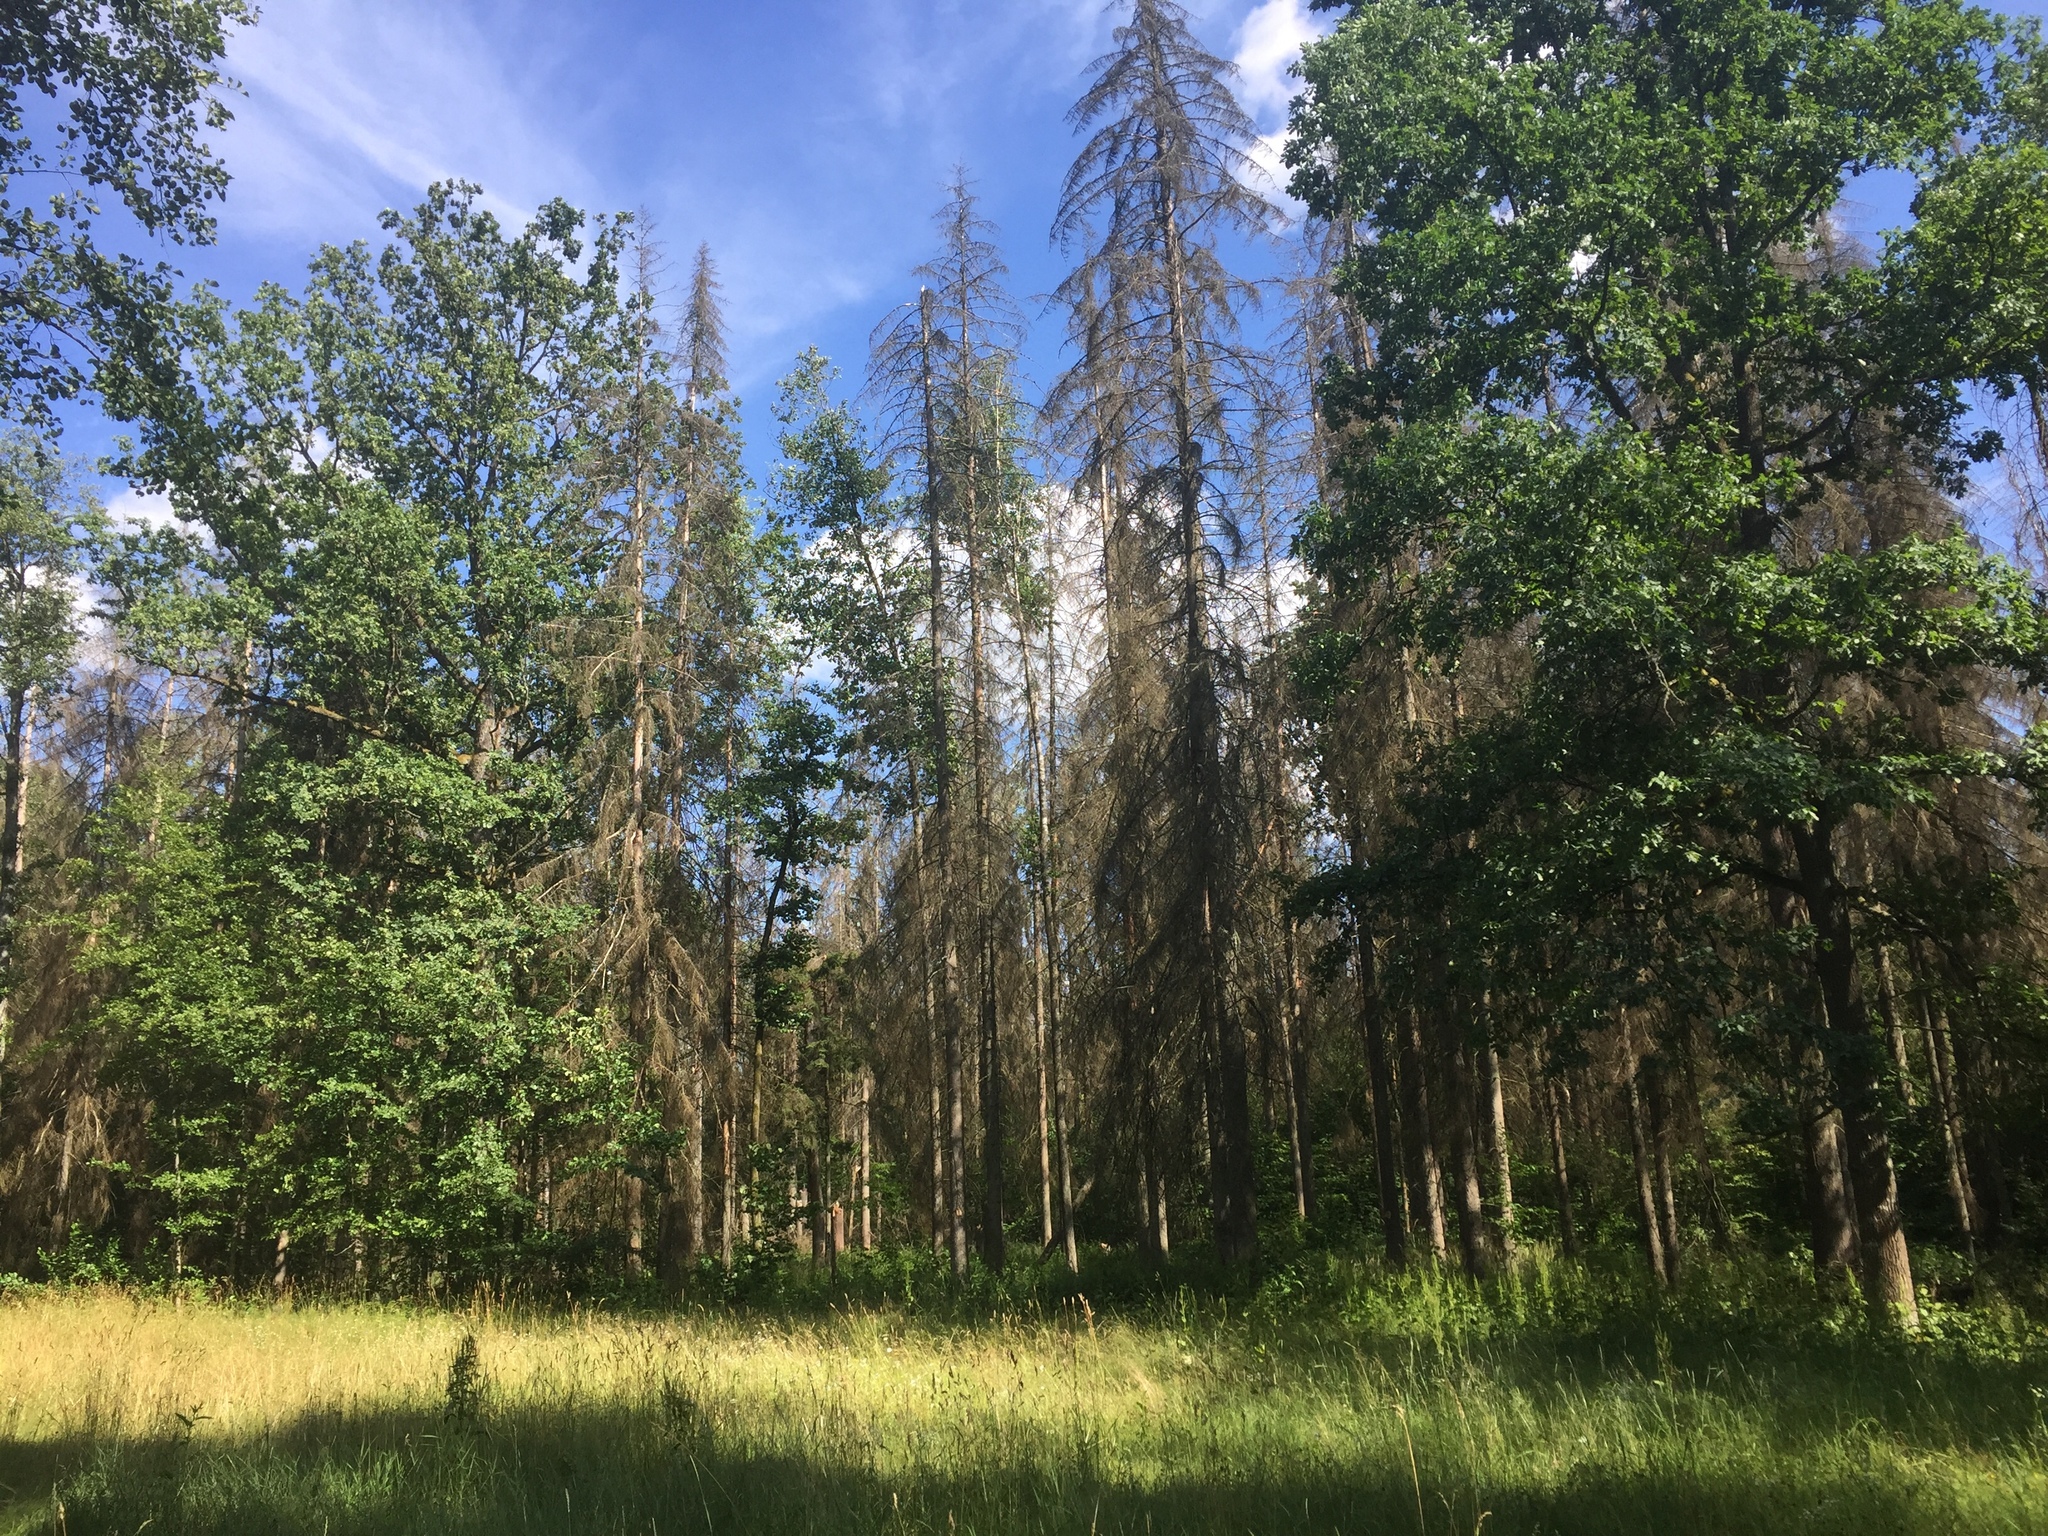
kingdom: Plantae
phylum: Tracheophyta
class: Pinopsida
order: Pinales
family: Pinaceae
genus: Picea
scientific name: Picea abies
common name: Norway spruce
